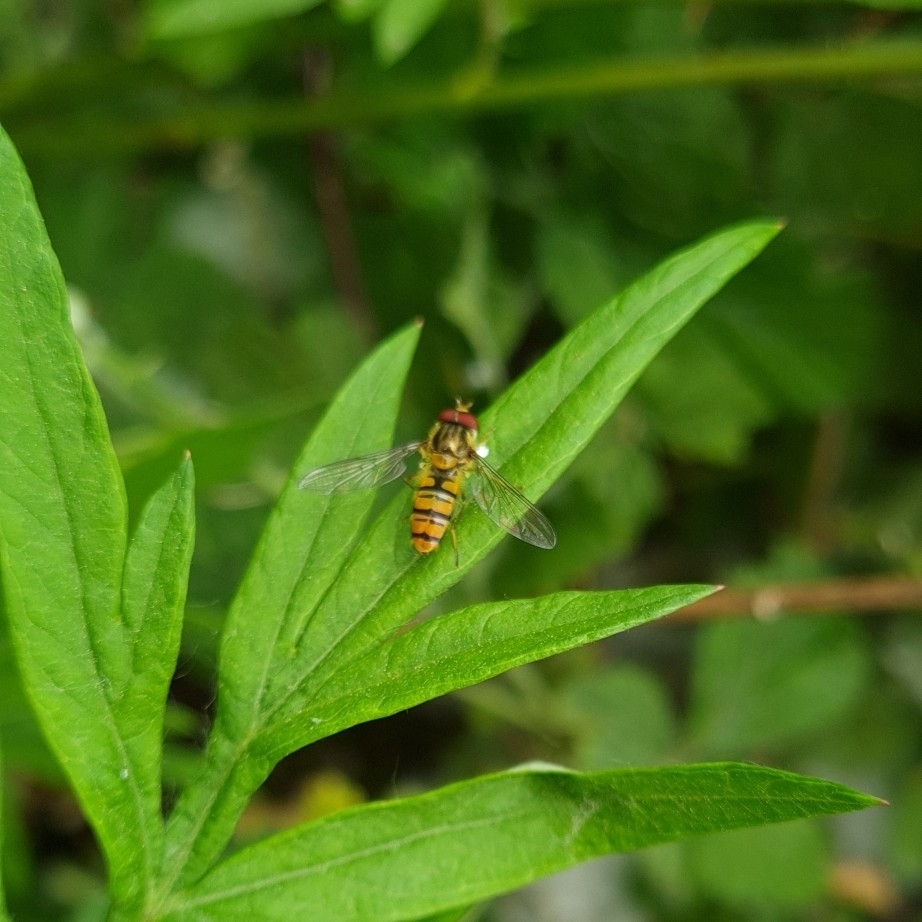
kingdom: Animalia
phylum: Arthropoda
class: Insecta
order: Diptera
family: Syrphidae
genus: Episyrphus
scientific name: Episyrphus balteatus
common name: Marmalade hoverfly
